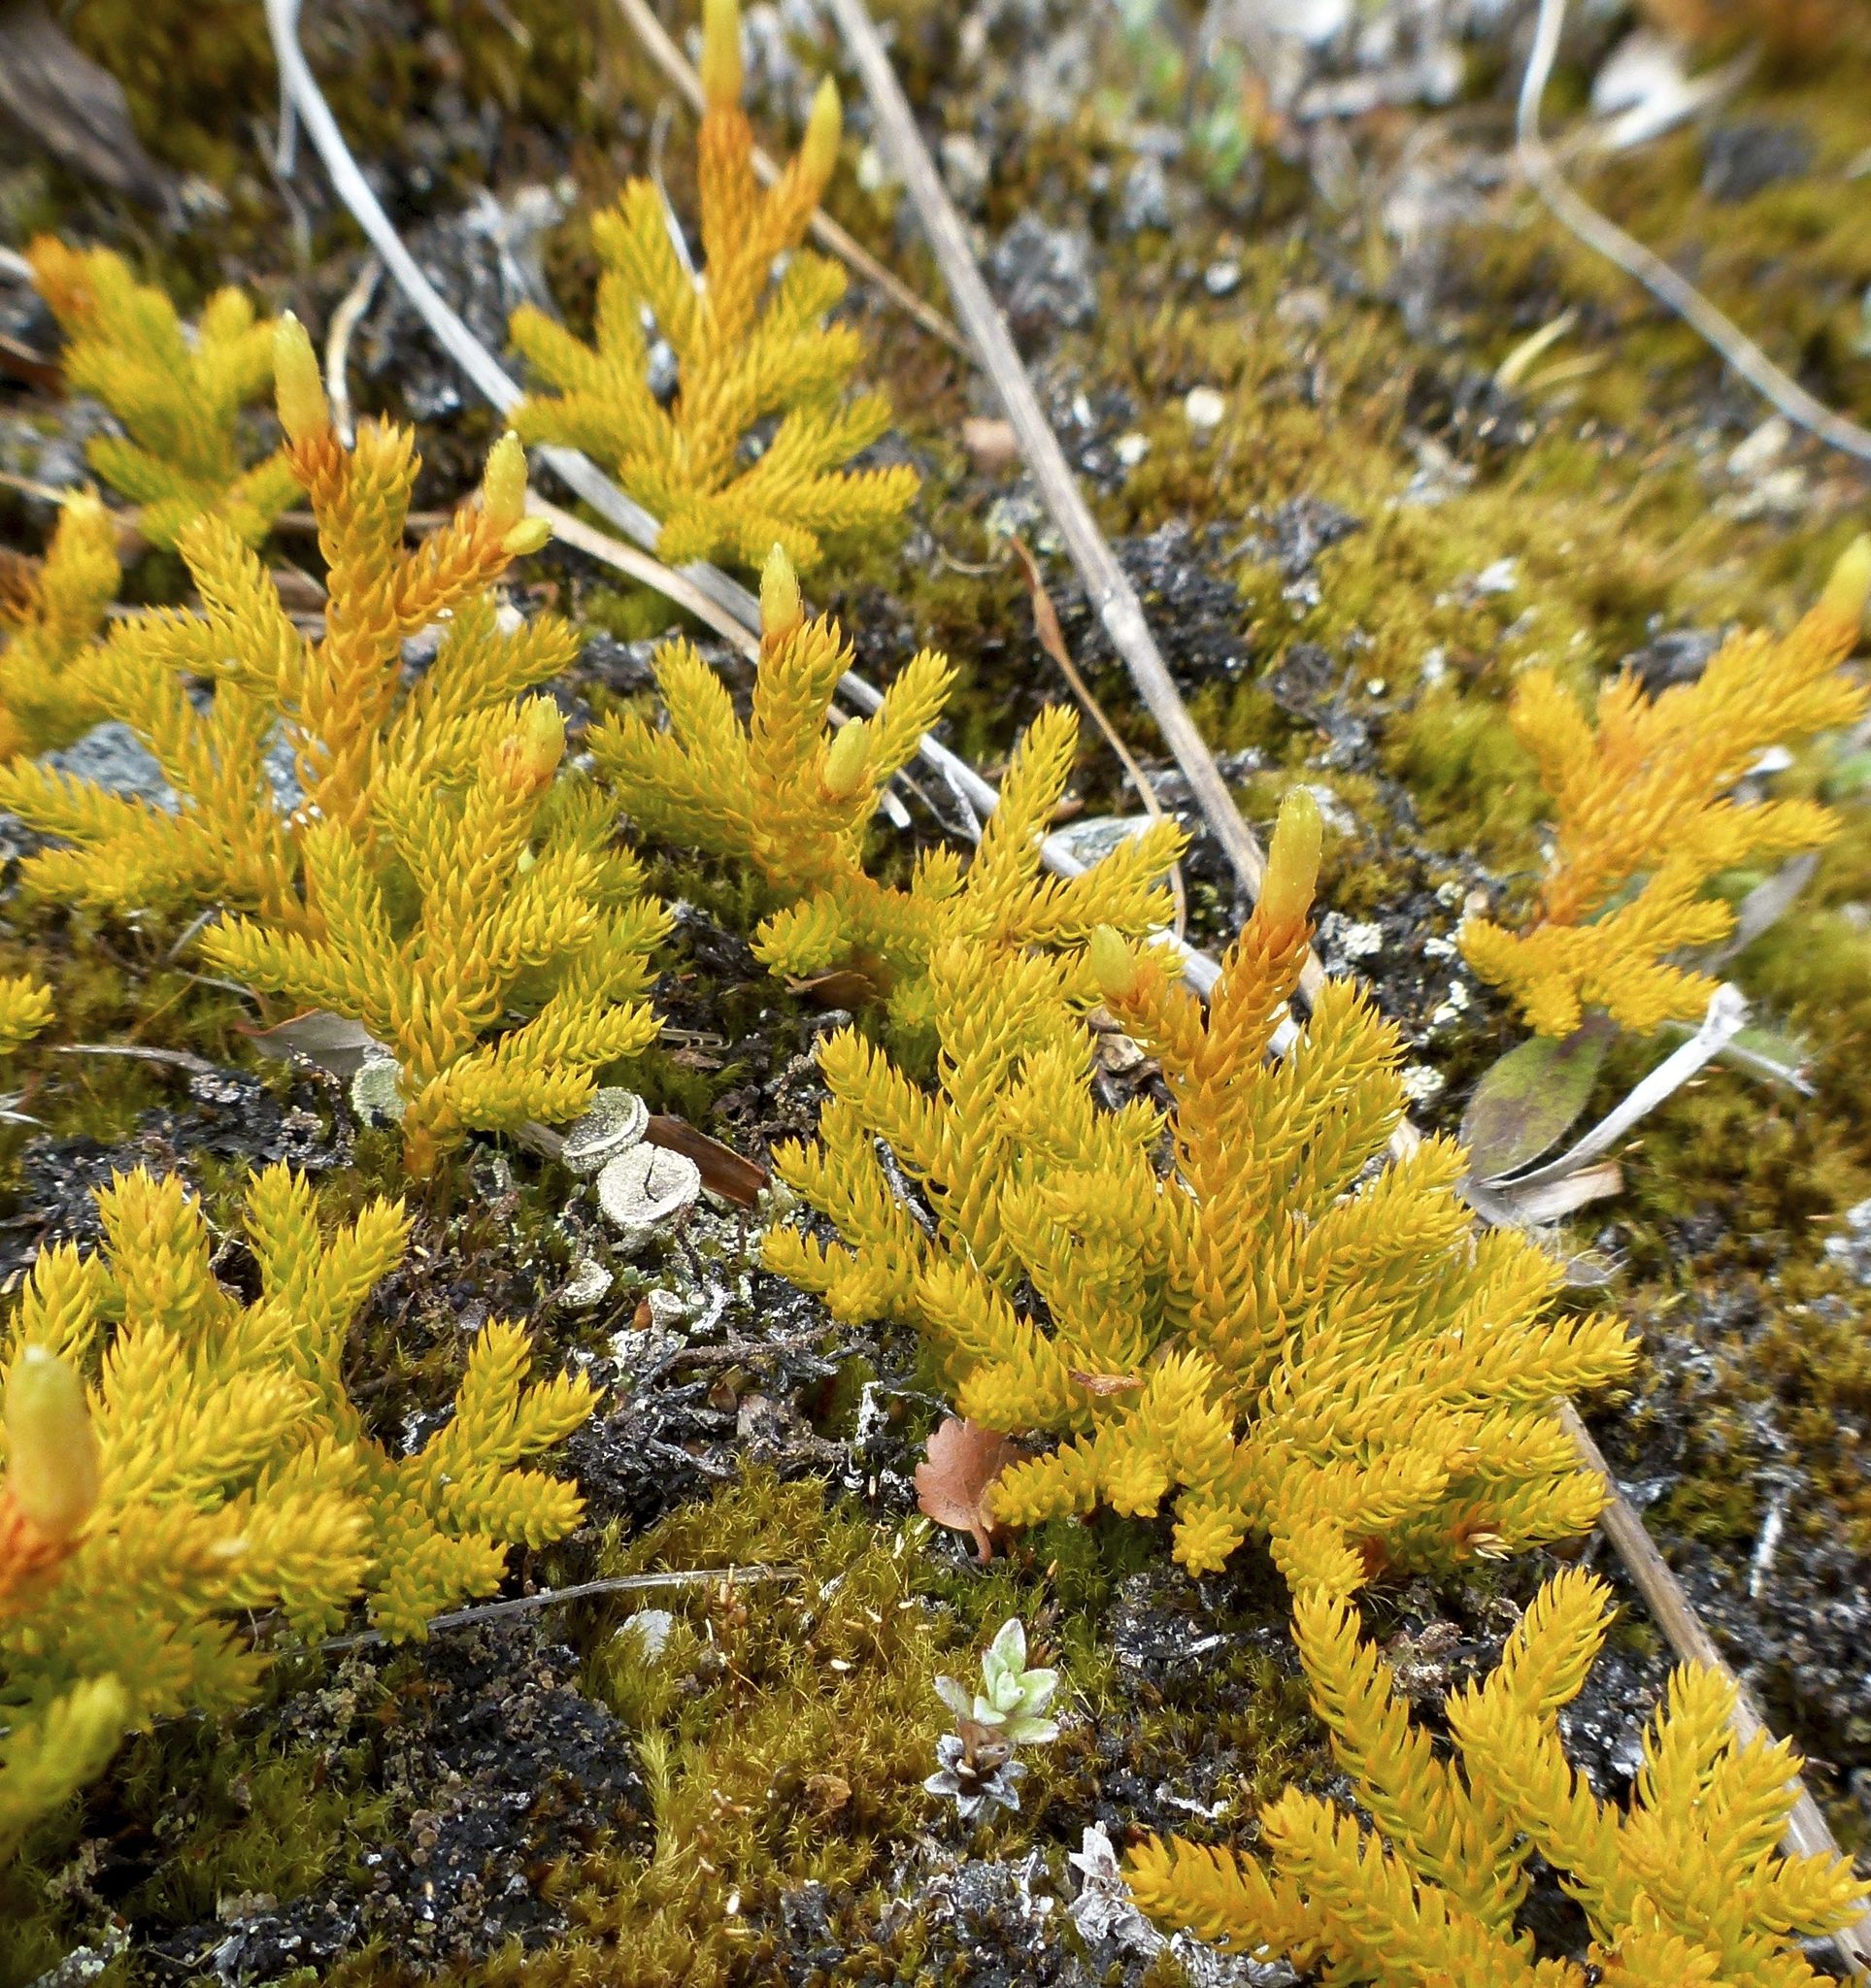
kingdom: Plantae
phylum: Tracheophyta
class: Lycopodiopsida
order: Lycopodiales
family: Lycopodiaceae
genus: Austrolycopodium
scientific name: Austrolycopodium fastigiatum
